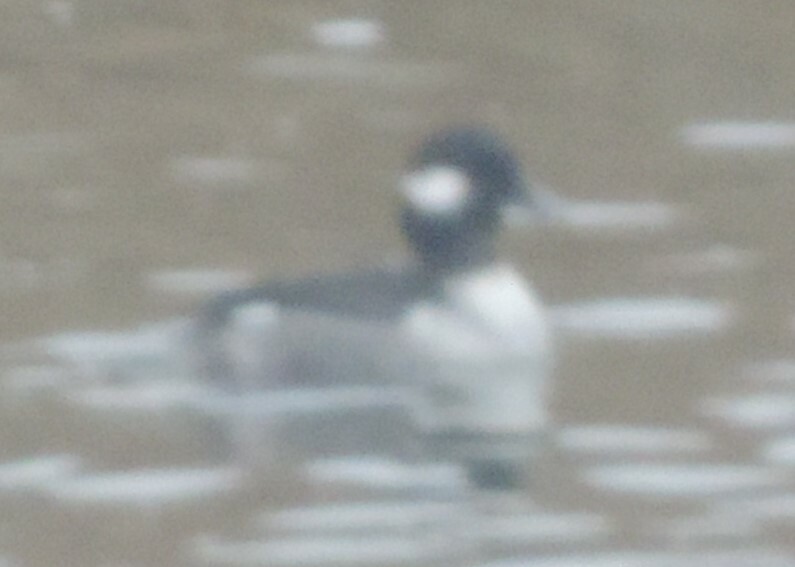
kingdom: Animalia
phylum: Chordata
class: Aves
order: Anseriformes
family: Anatidae
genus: Bucephala
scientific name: Bucephala albeola
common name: Bufflehead
